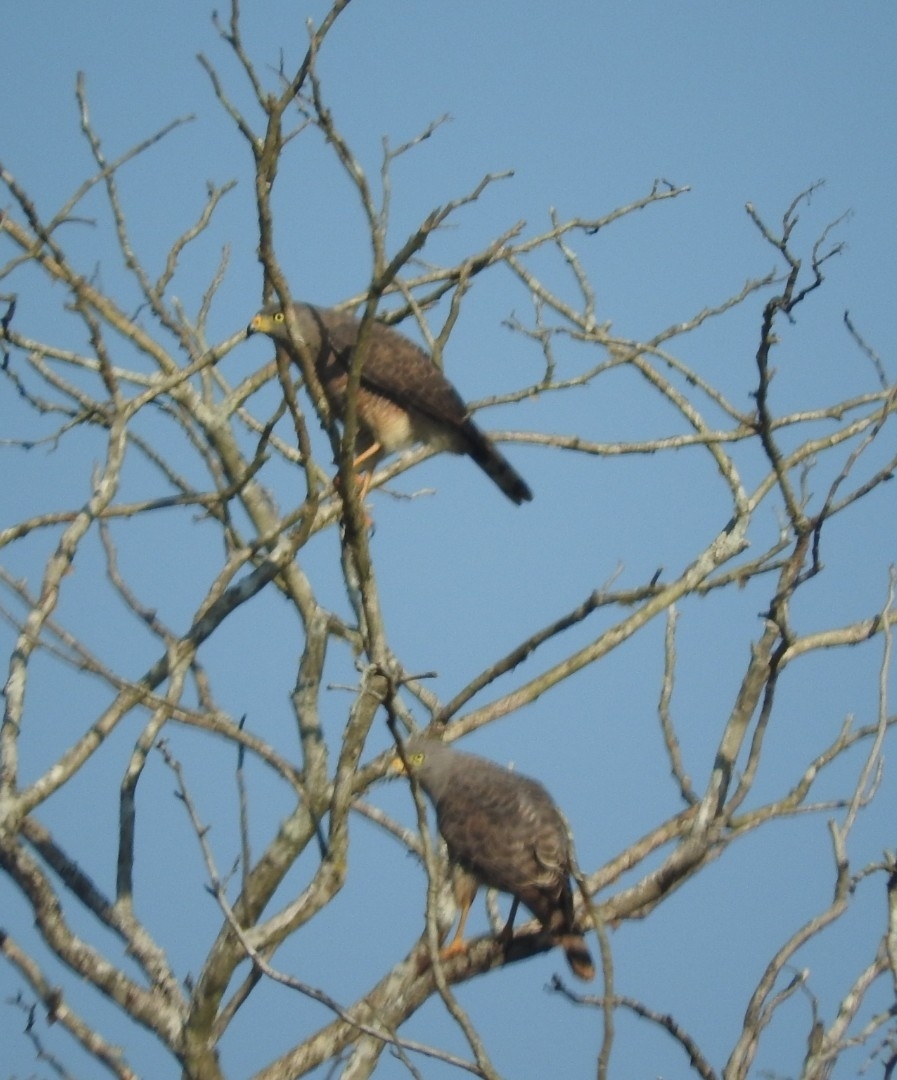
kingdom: Animalia
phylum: Chordata
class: Aves
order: Accipitriformes
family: Accipitridae
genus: Rupornis
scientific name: Rupornis magnirostris
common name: Roadside hawk
